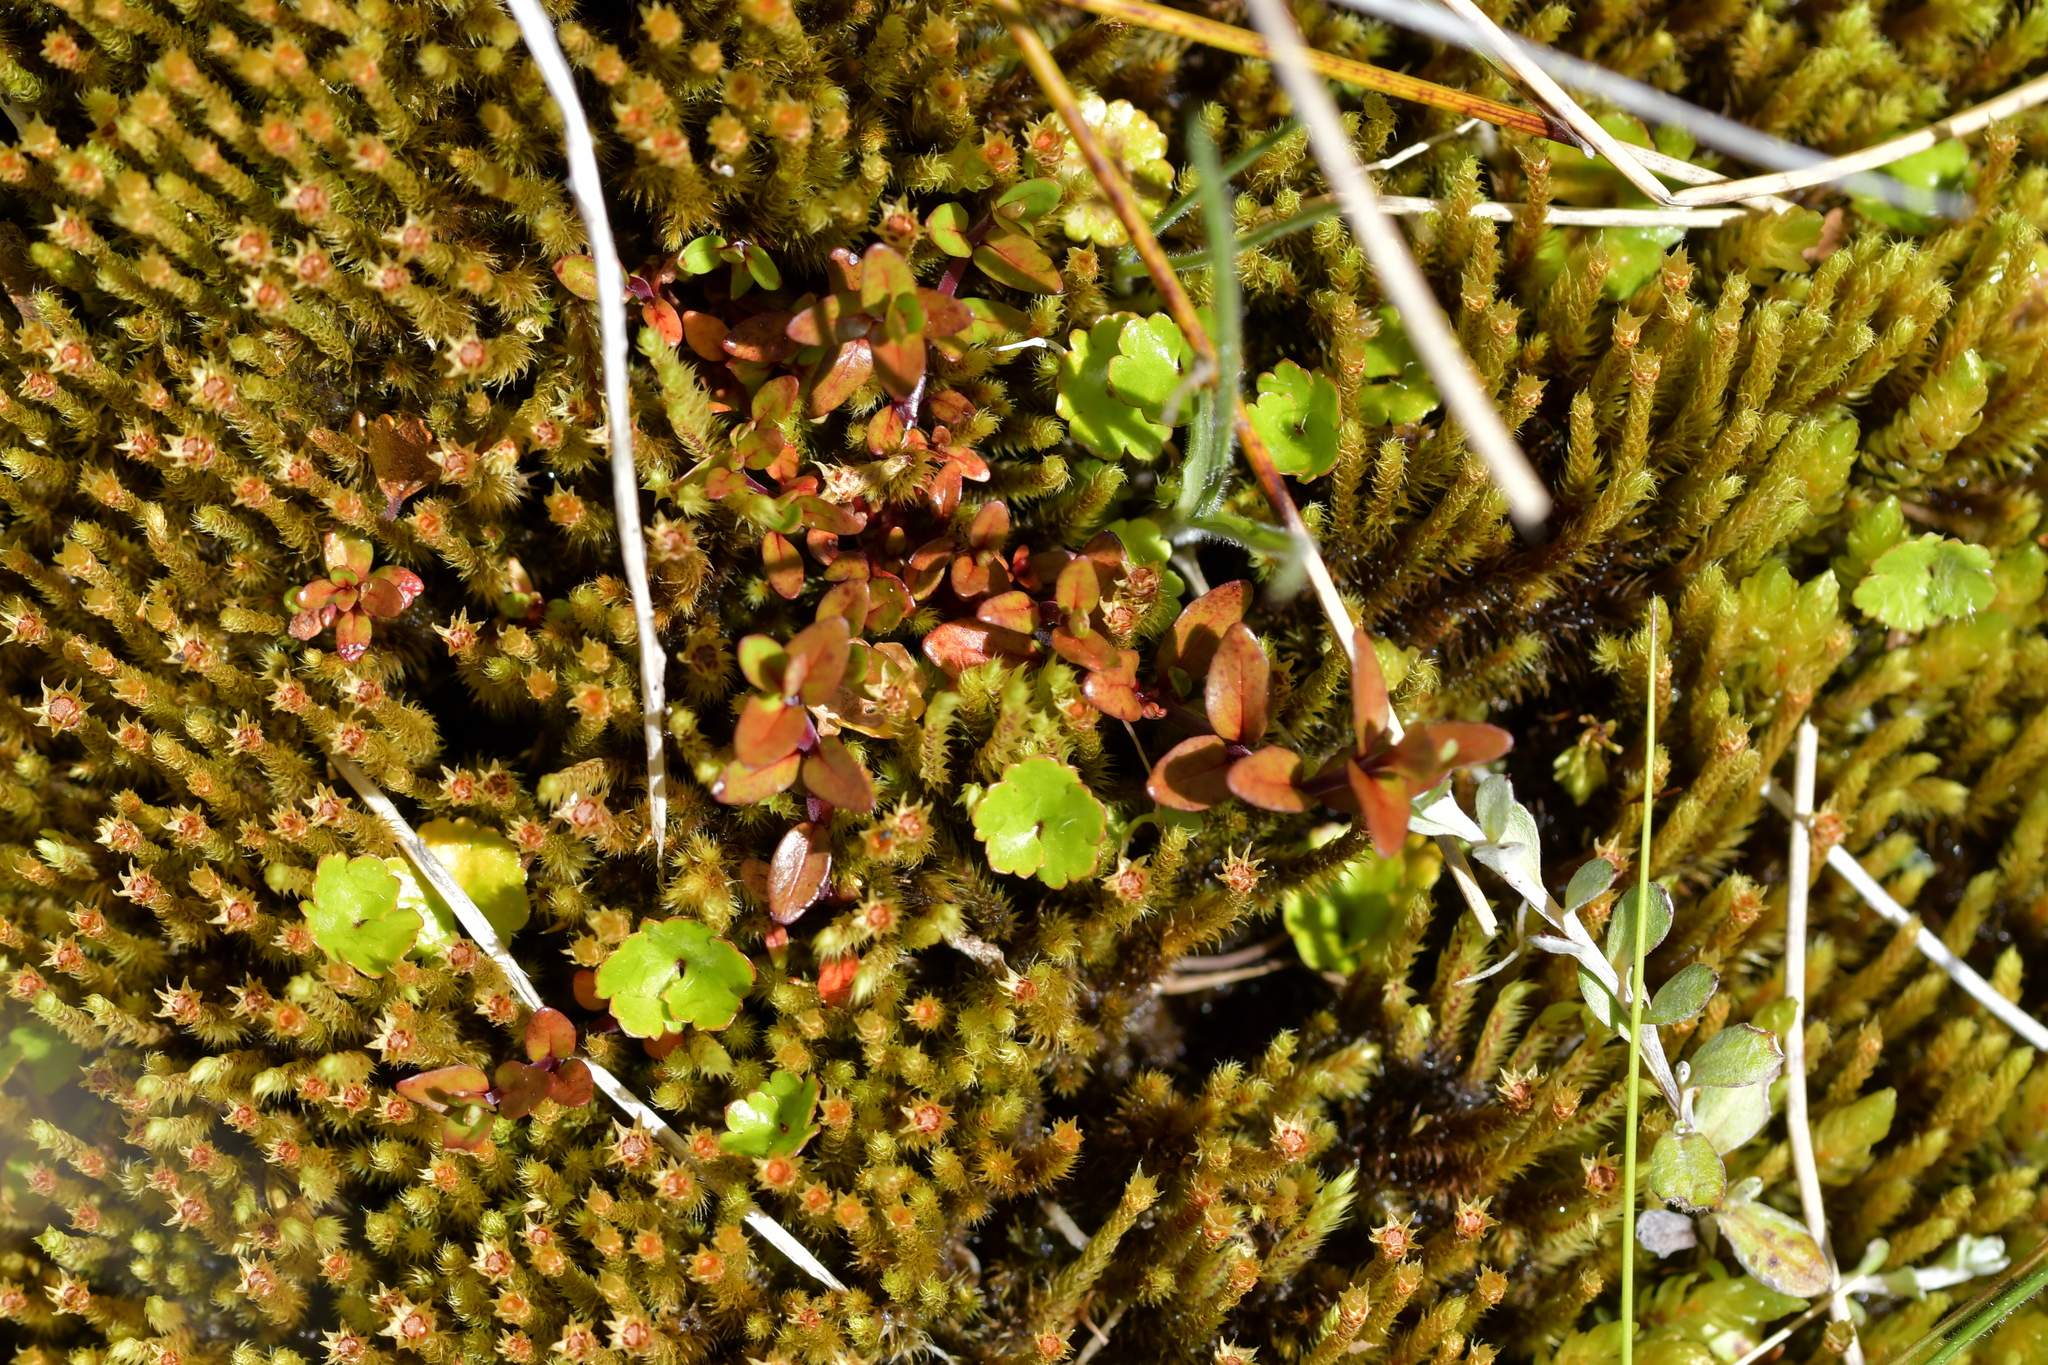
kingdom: Plantae
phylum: Tracheophyta
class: Magnoliopsida
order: Apiales
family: Araliaceae
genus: Hydrocotyle
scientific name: Hydrocotyle novae-zeelandiae
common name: New zealand pennywort
